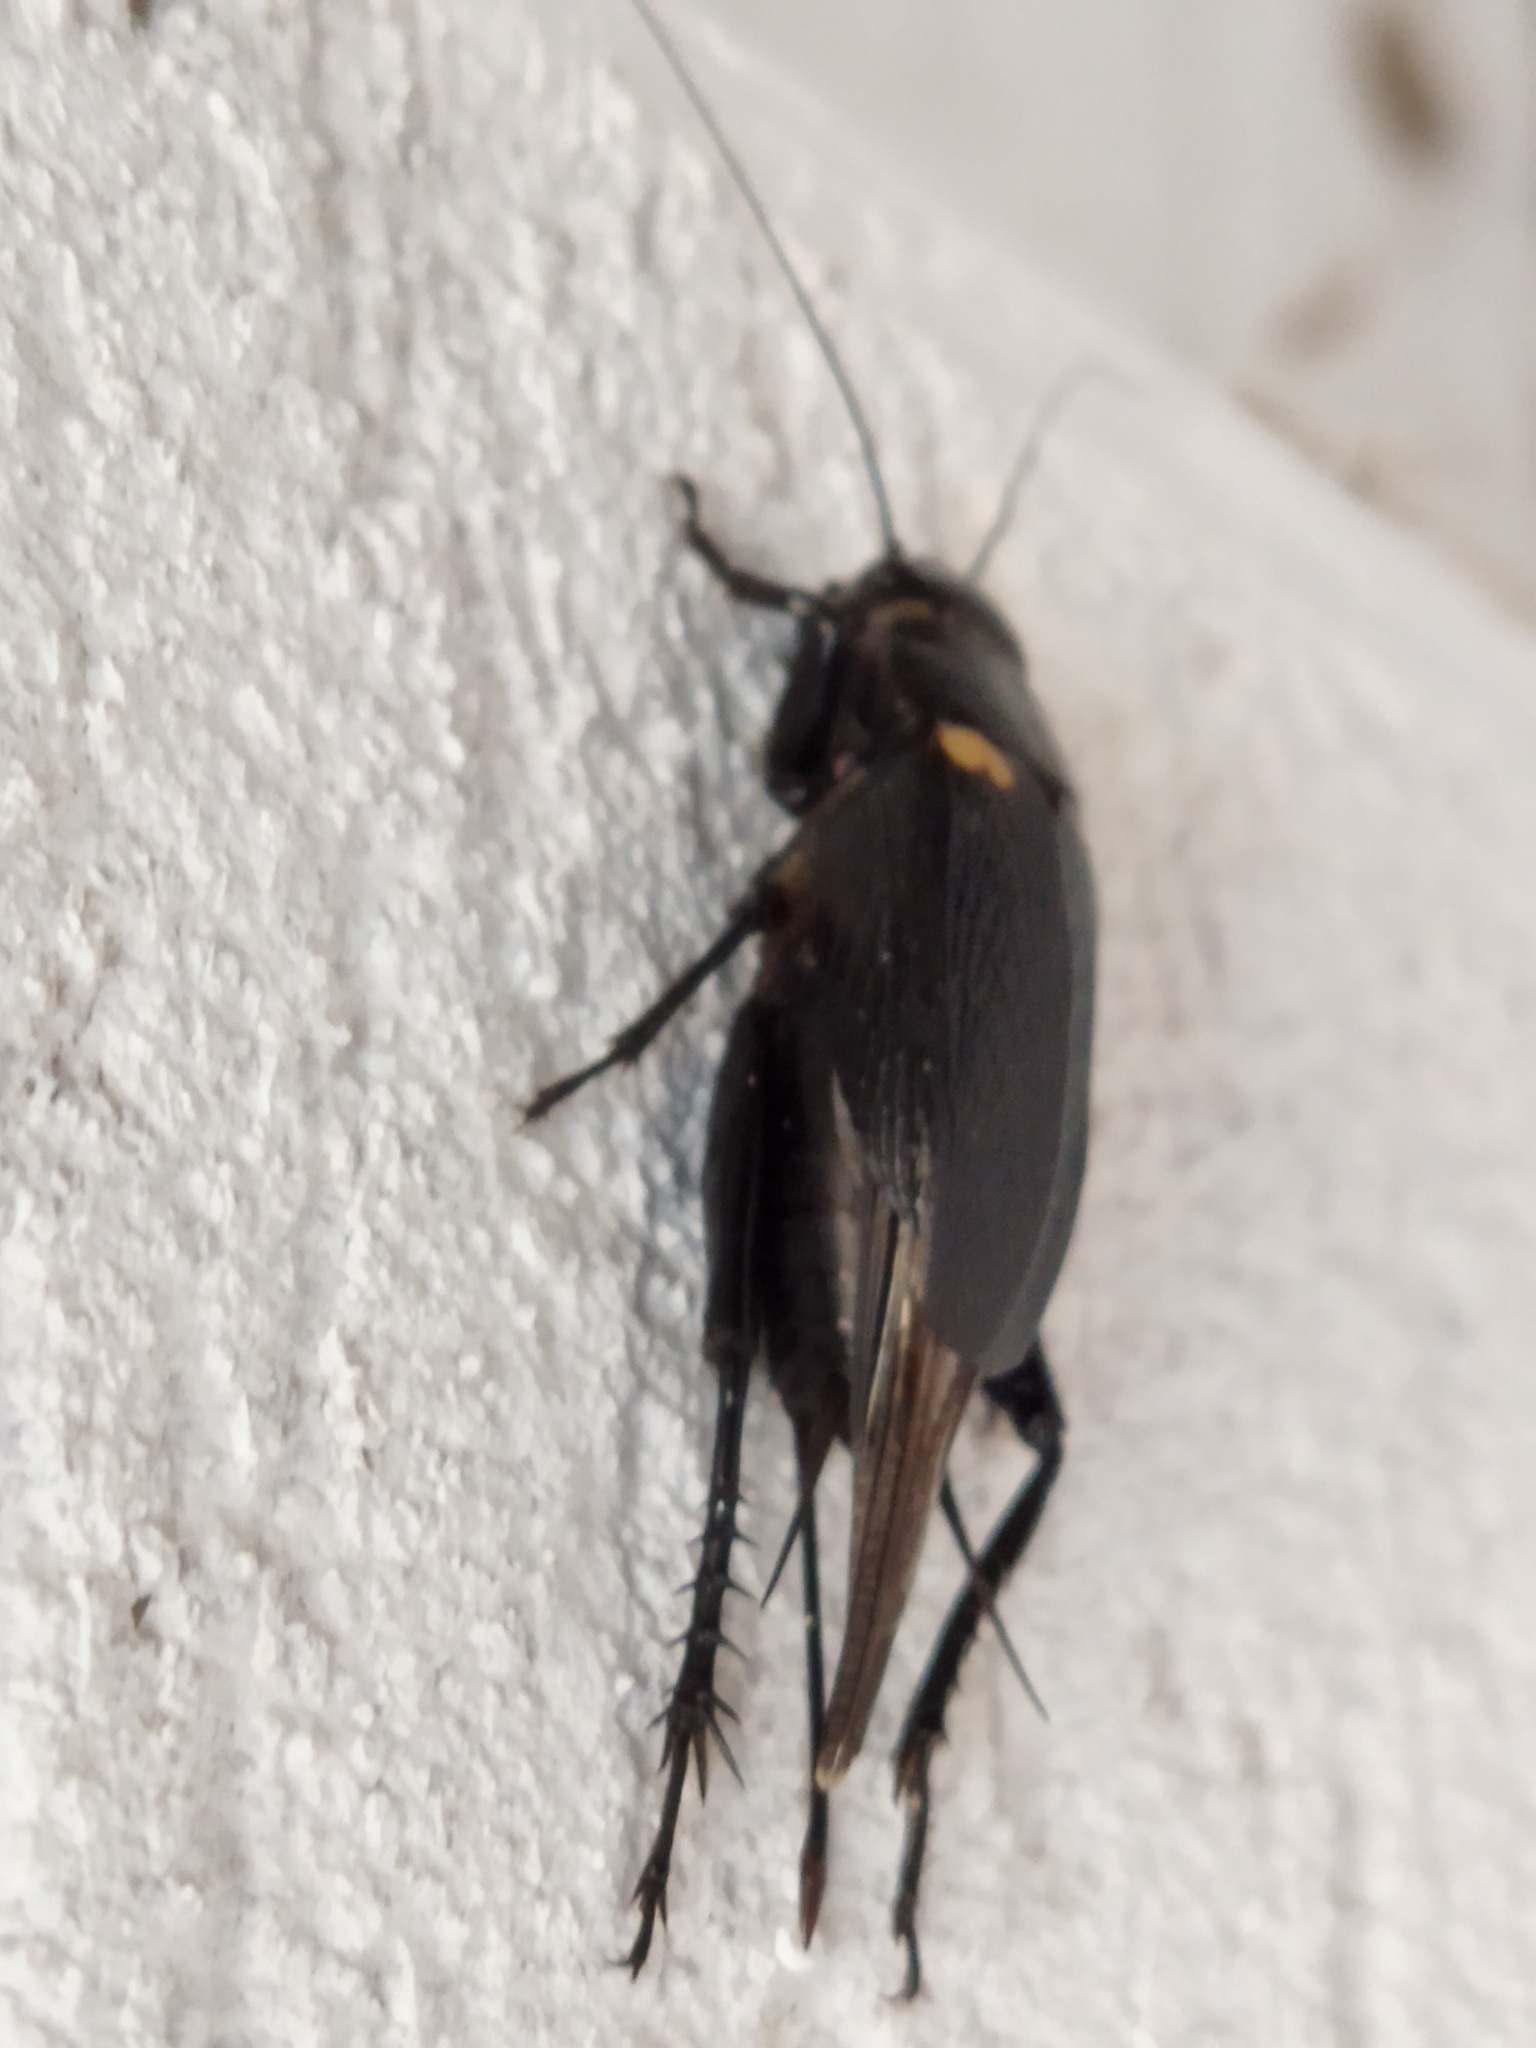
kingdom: Animalia
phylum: Arthropoda
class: Insecta
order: Orthoptera
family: Gryllidae
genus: Gryllus
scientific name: Gryllus bimaculatus
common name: Two-spotted cricket
